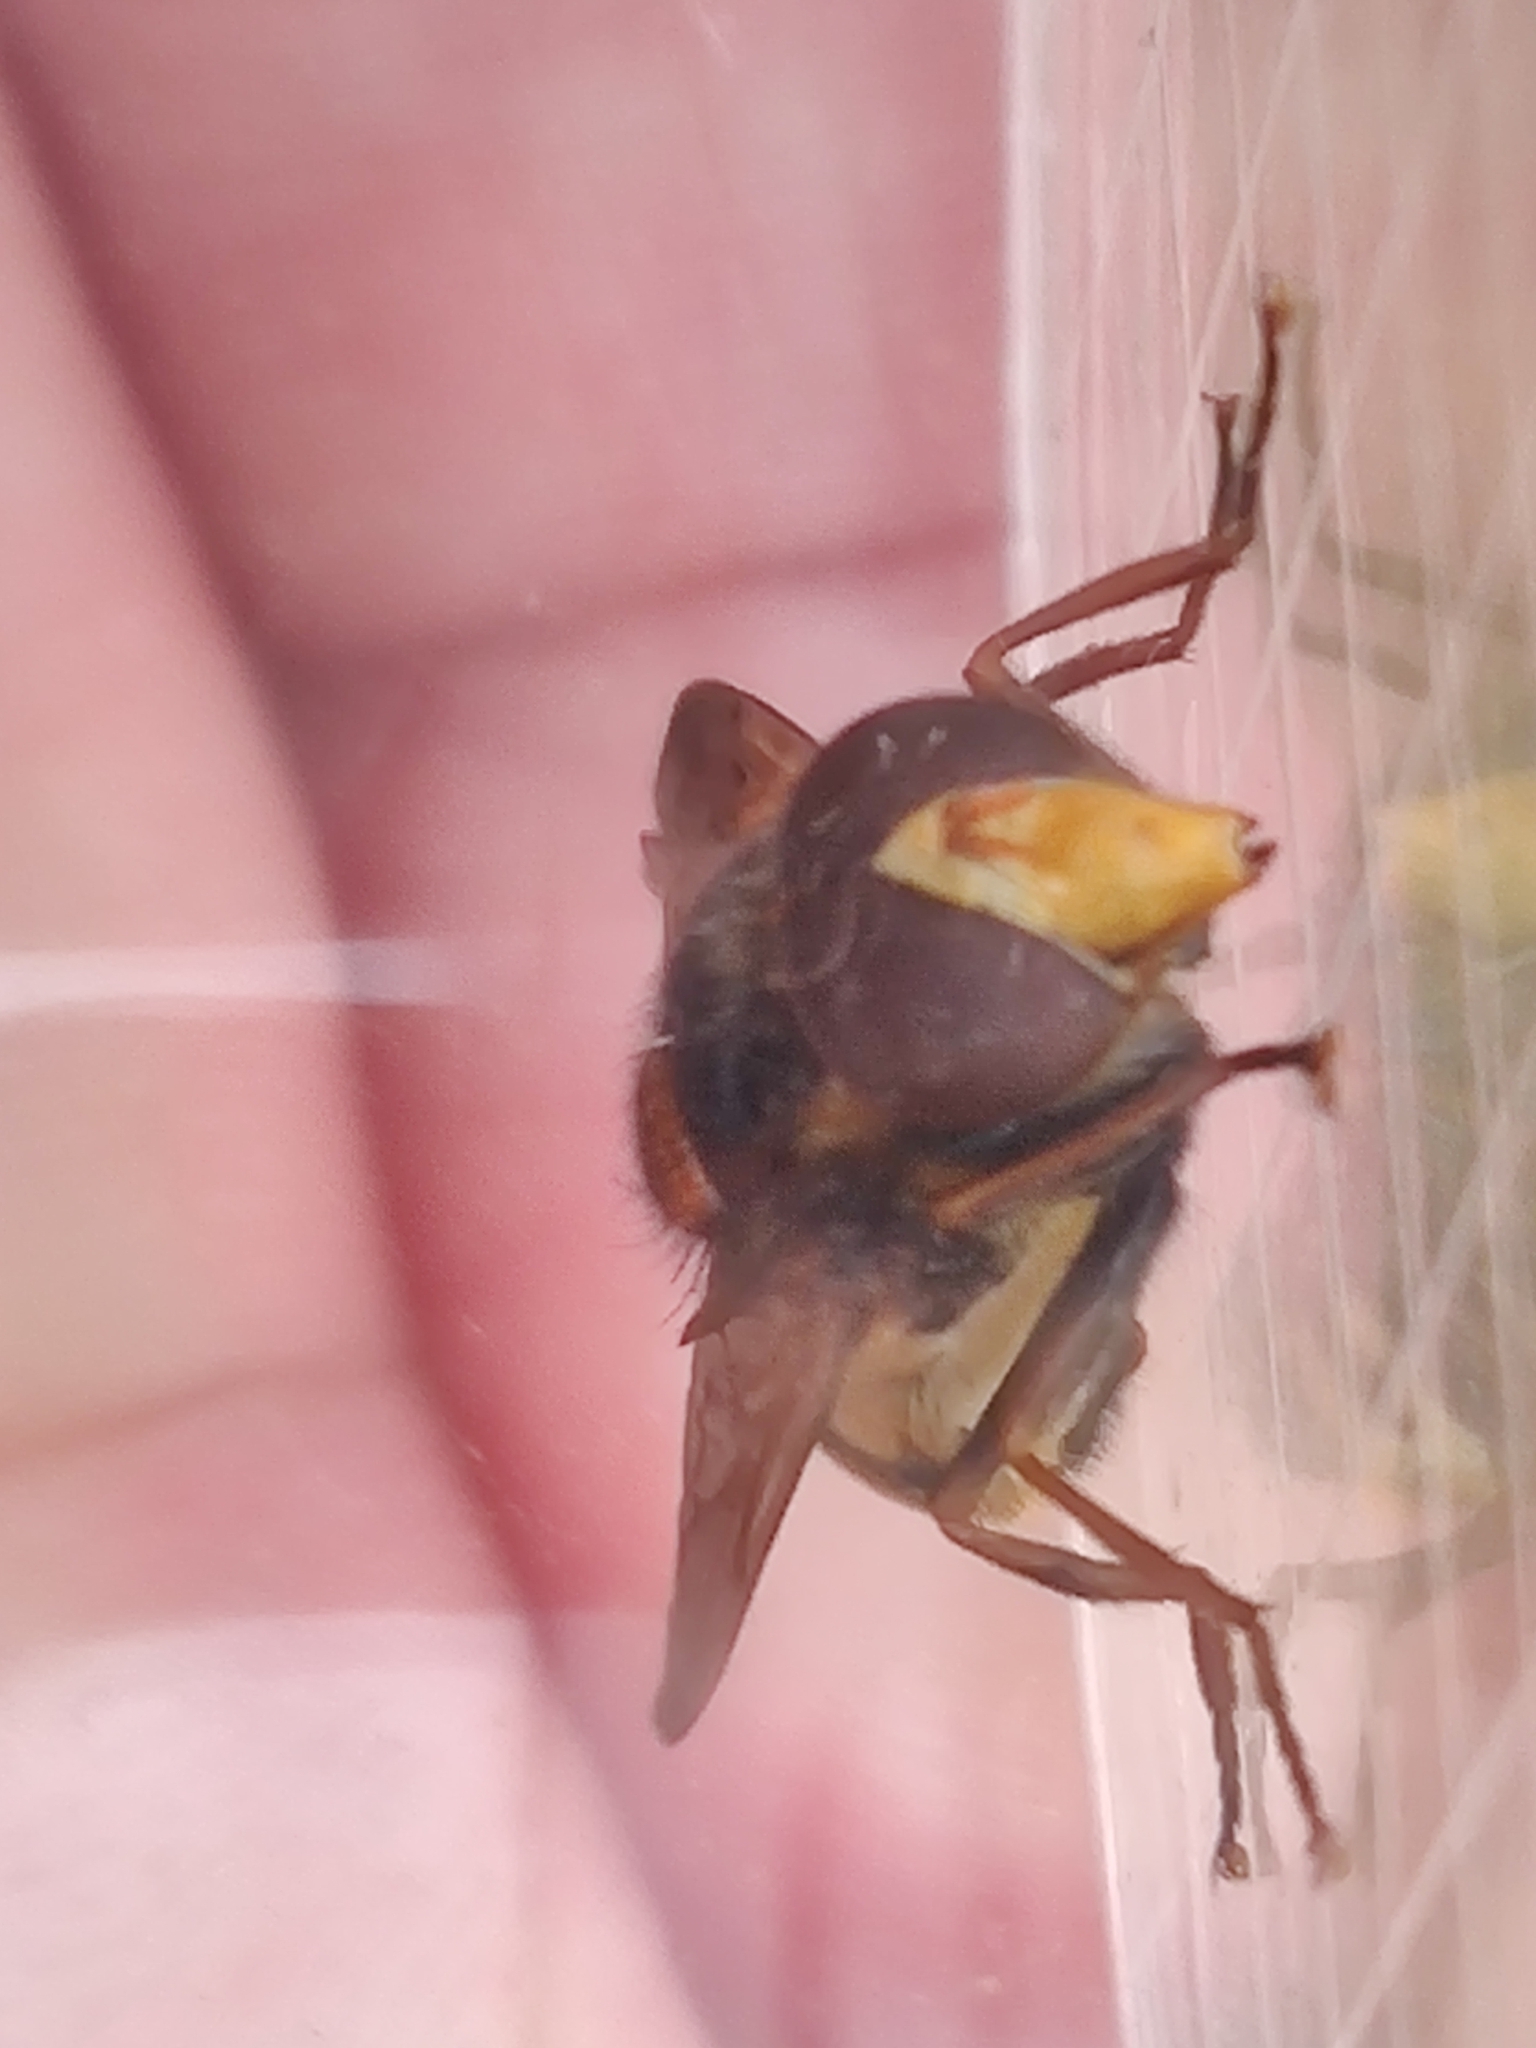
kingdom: Animalia
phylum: Arthropoda
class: Insecta
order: Diptera
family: Syrphidae
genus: Volucella
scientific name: Volucella inanis
